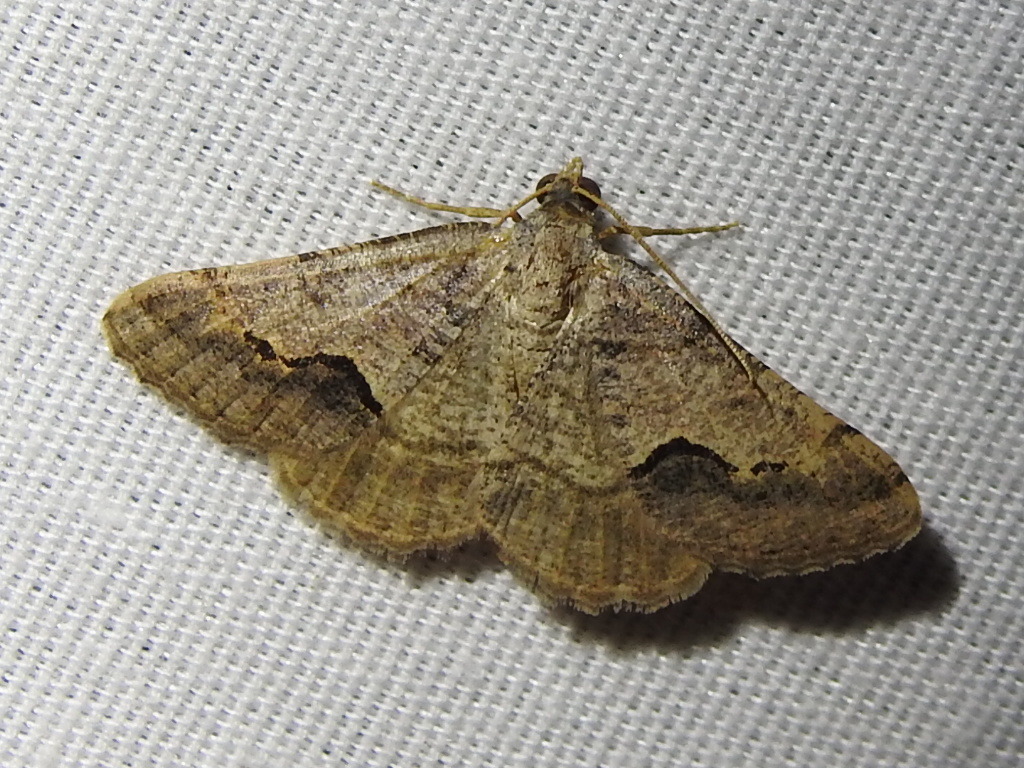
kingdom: Animalia
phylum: Arthropoda
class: Insecta
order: Lepidoptera
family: Geometridae
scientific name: Geometridae
